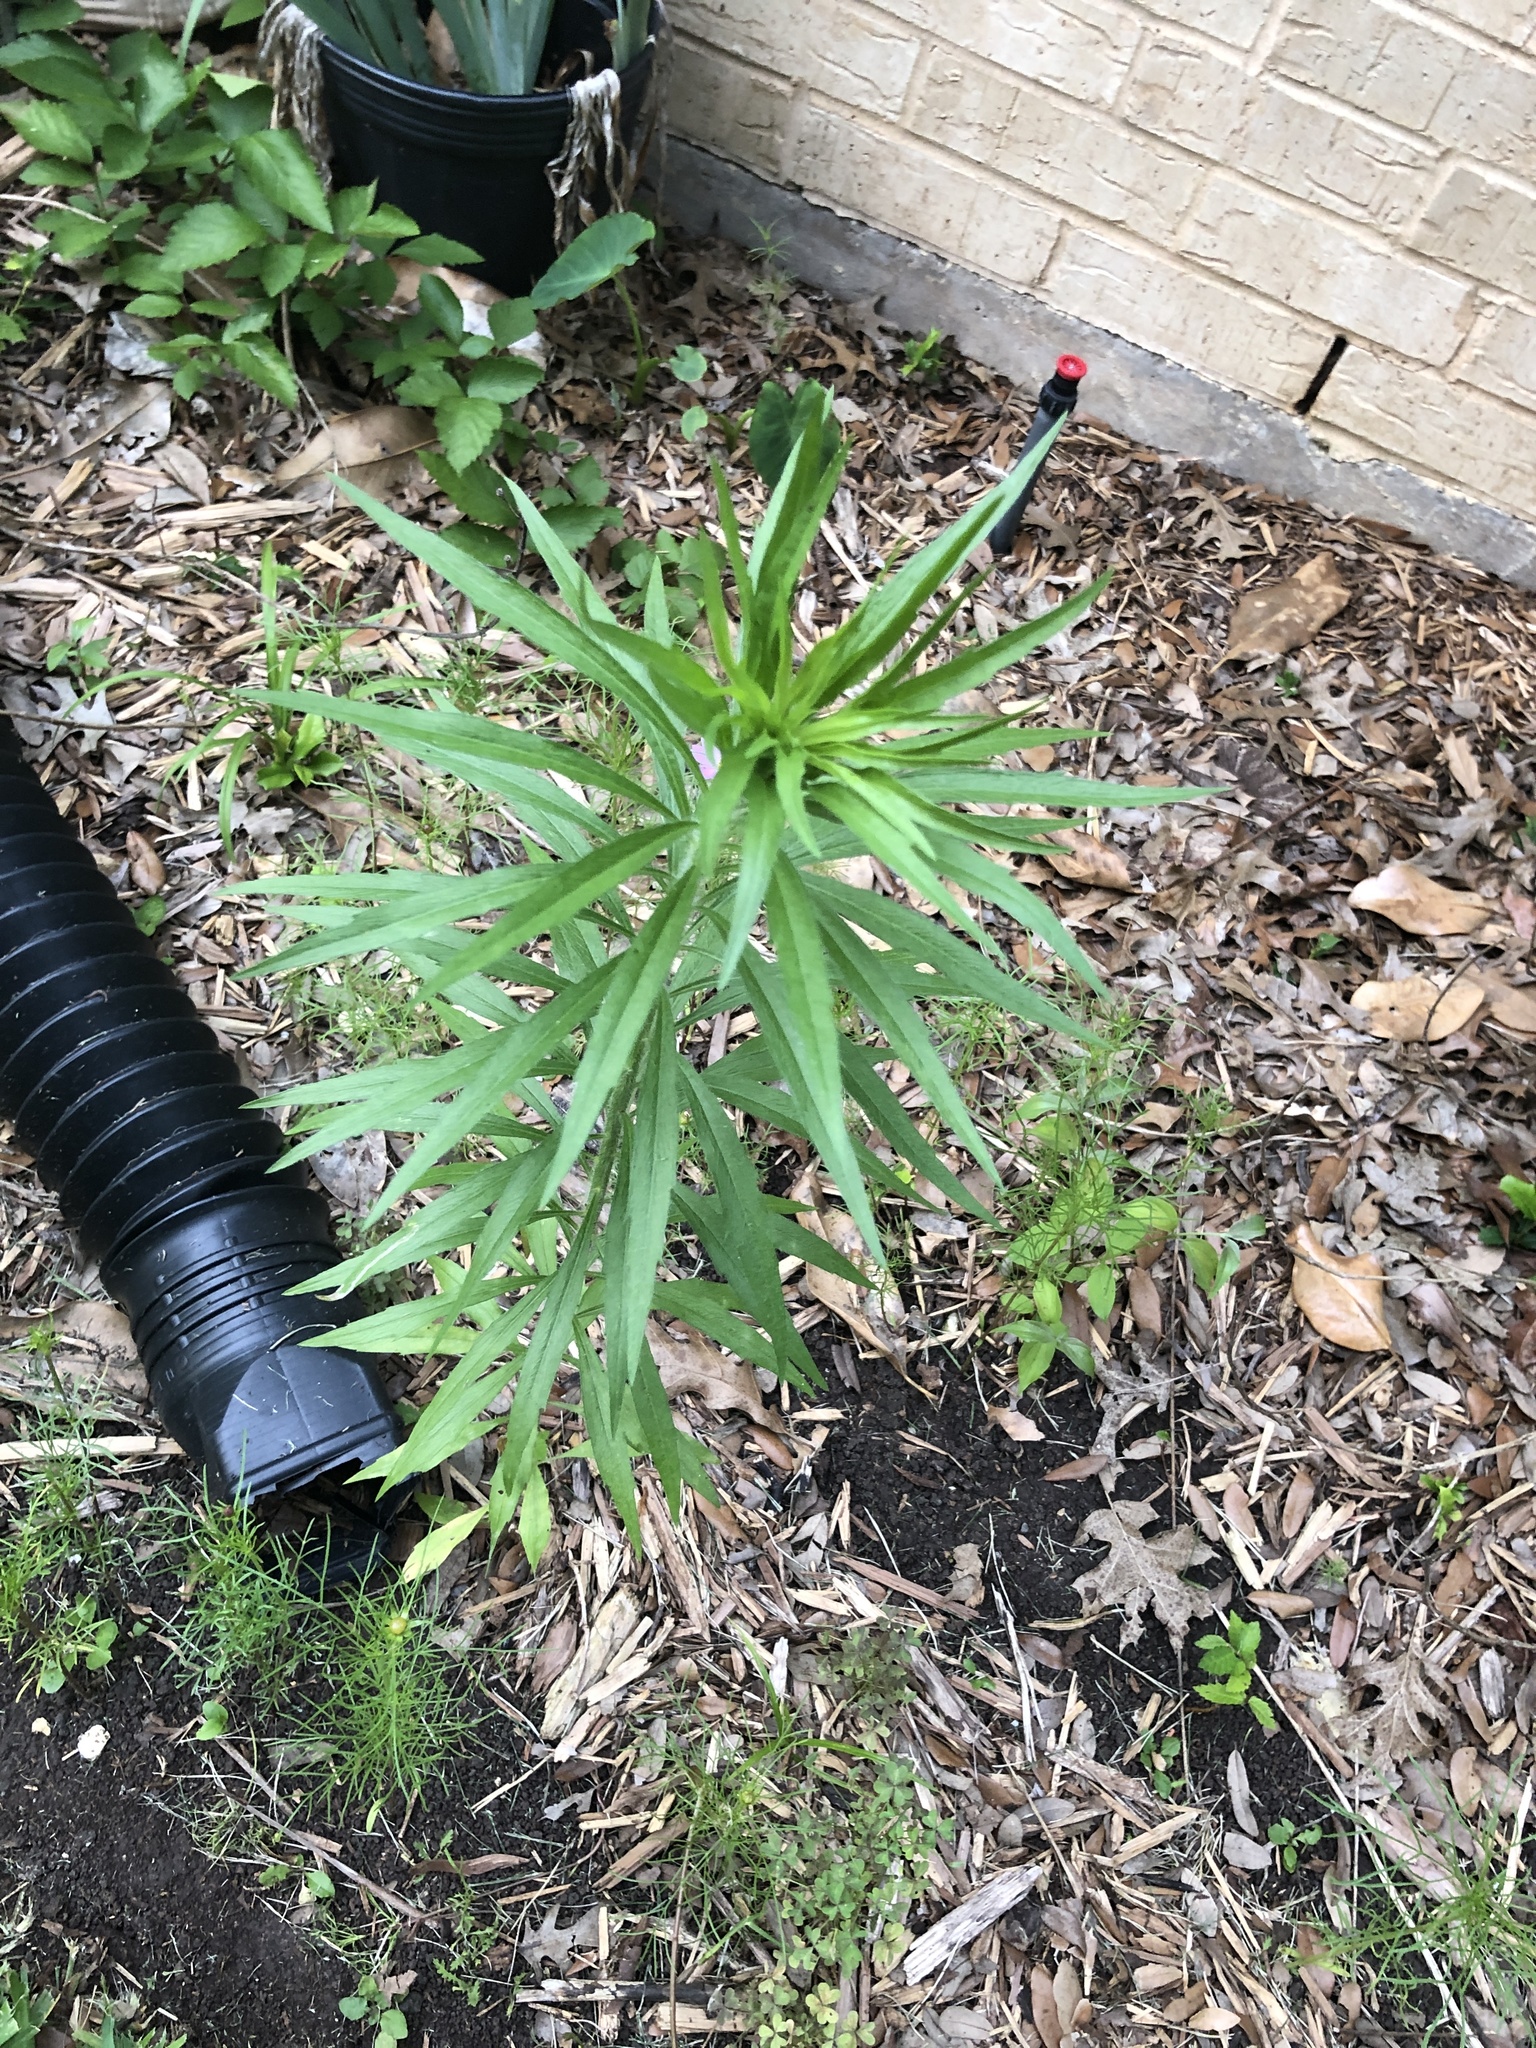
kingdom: Plantae
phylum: Tracheophyta
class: Magnoliopsida
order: Asterales
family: Asteraceae
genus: Erigeron
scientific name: Erigeron canadensis
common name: Canadian fleabane
